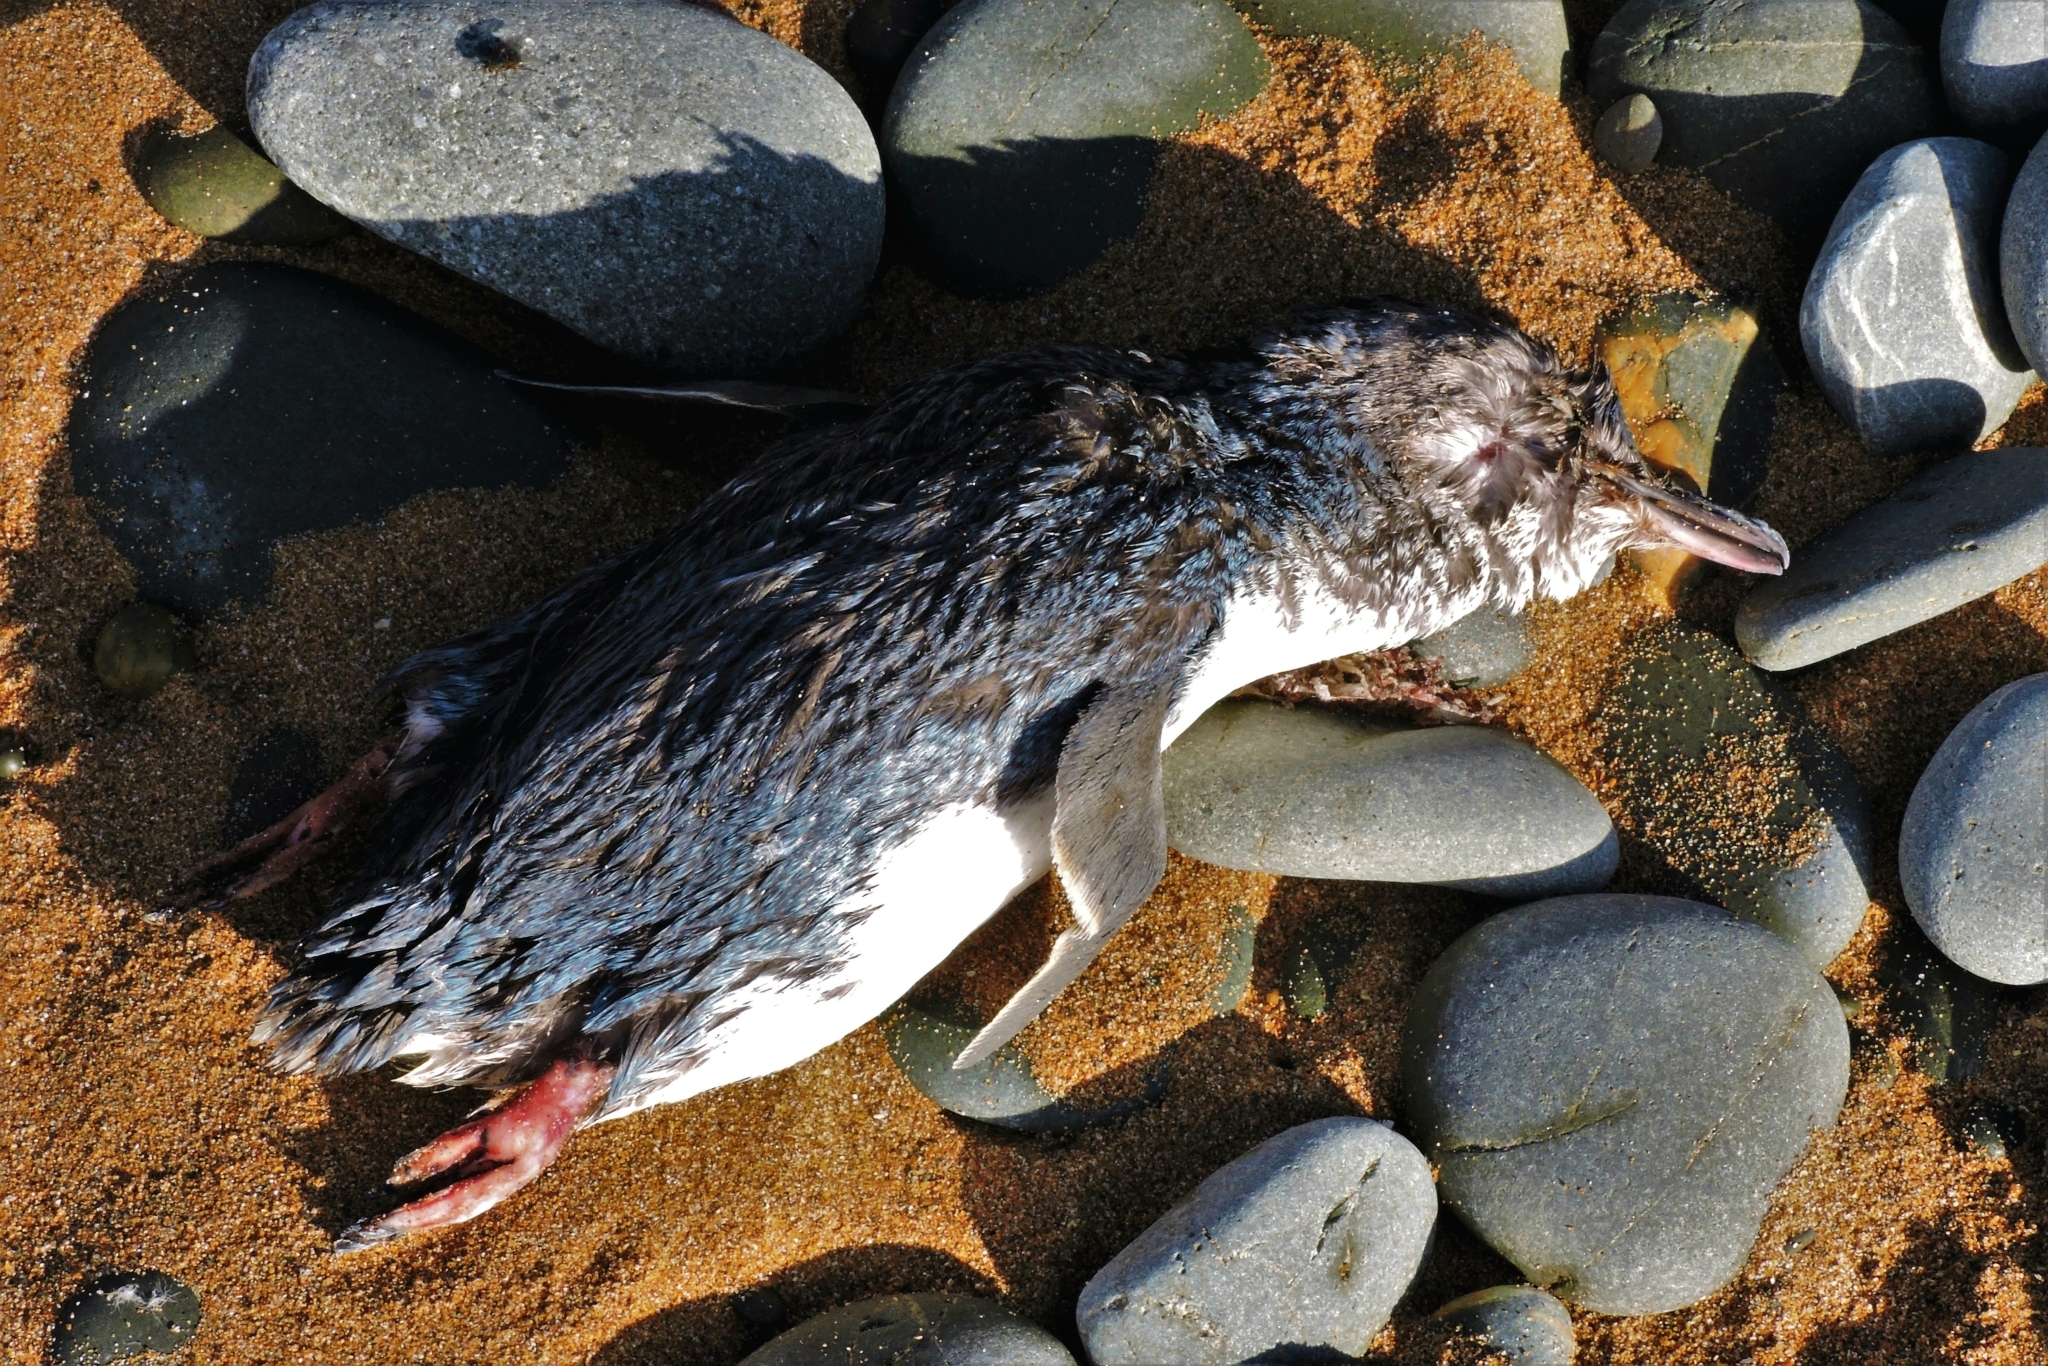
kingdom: Animalia
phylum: Chordata
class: Aves
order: Sphenisciformes
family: Spheniscidae
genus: Eudyptula
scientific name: Eudyptula minor
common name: Little penguin
